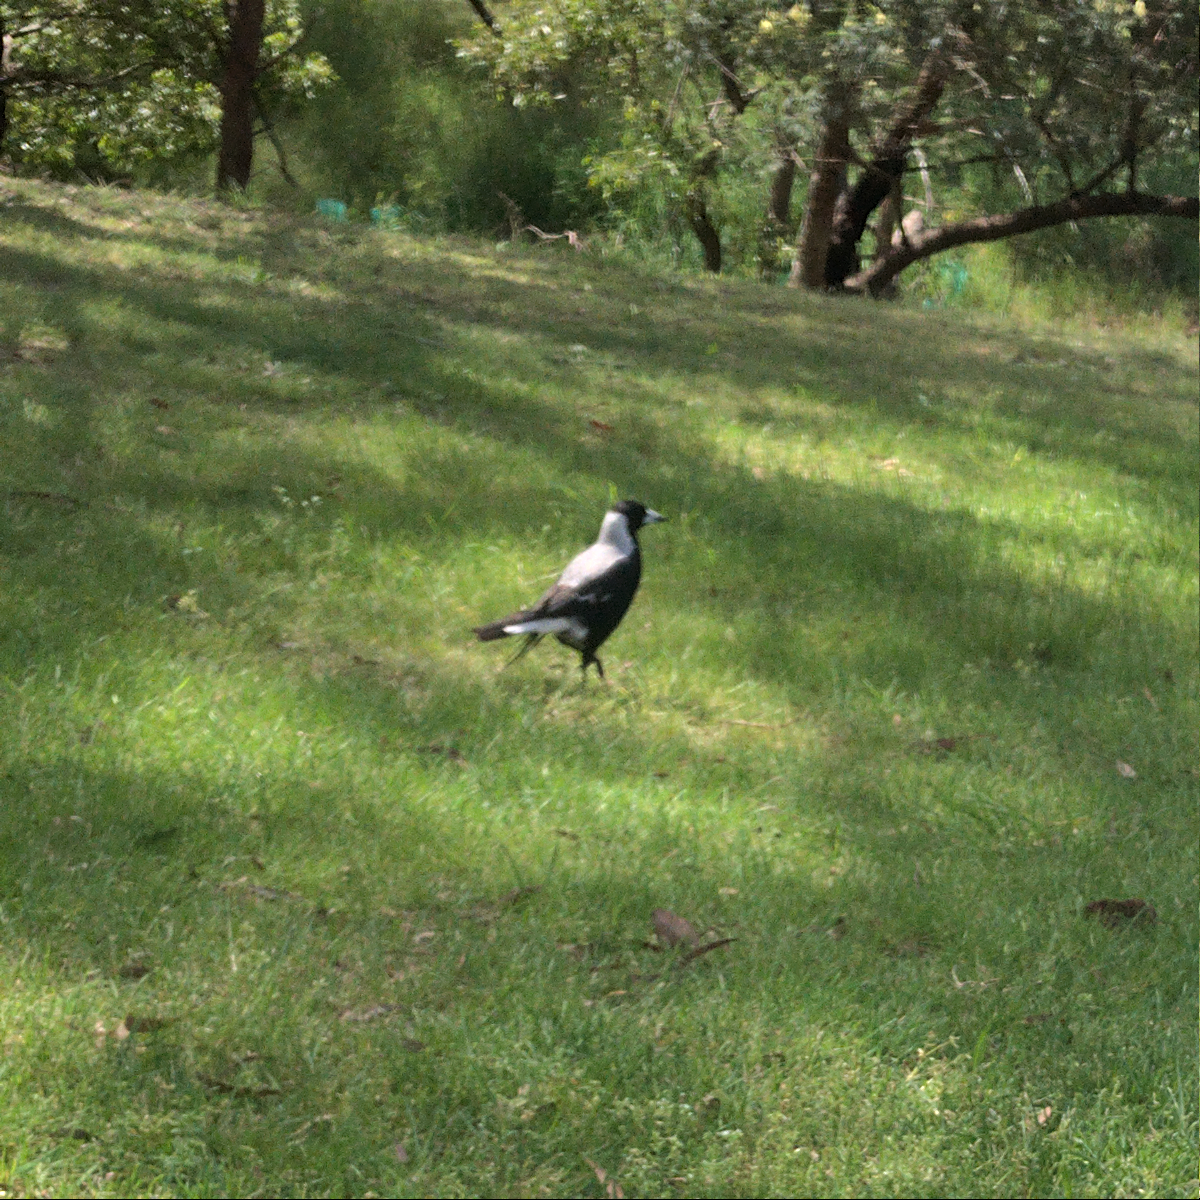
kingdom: Animalia
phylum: Chordata
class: Aves
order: Passeriformes
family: Cracticidae
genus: Gymnorhina
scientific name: Gymnorhina tibicen
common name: Australian magpie
